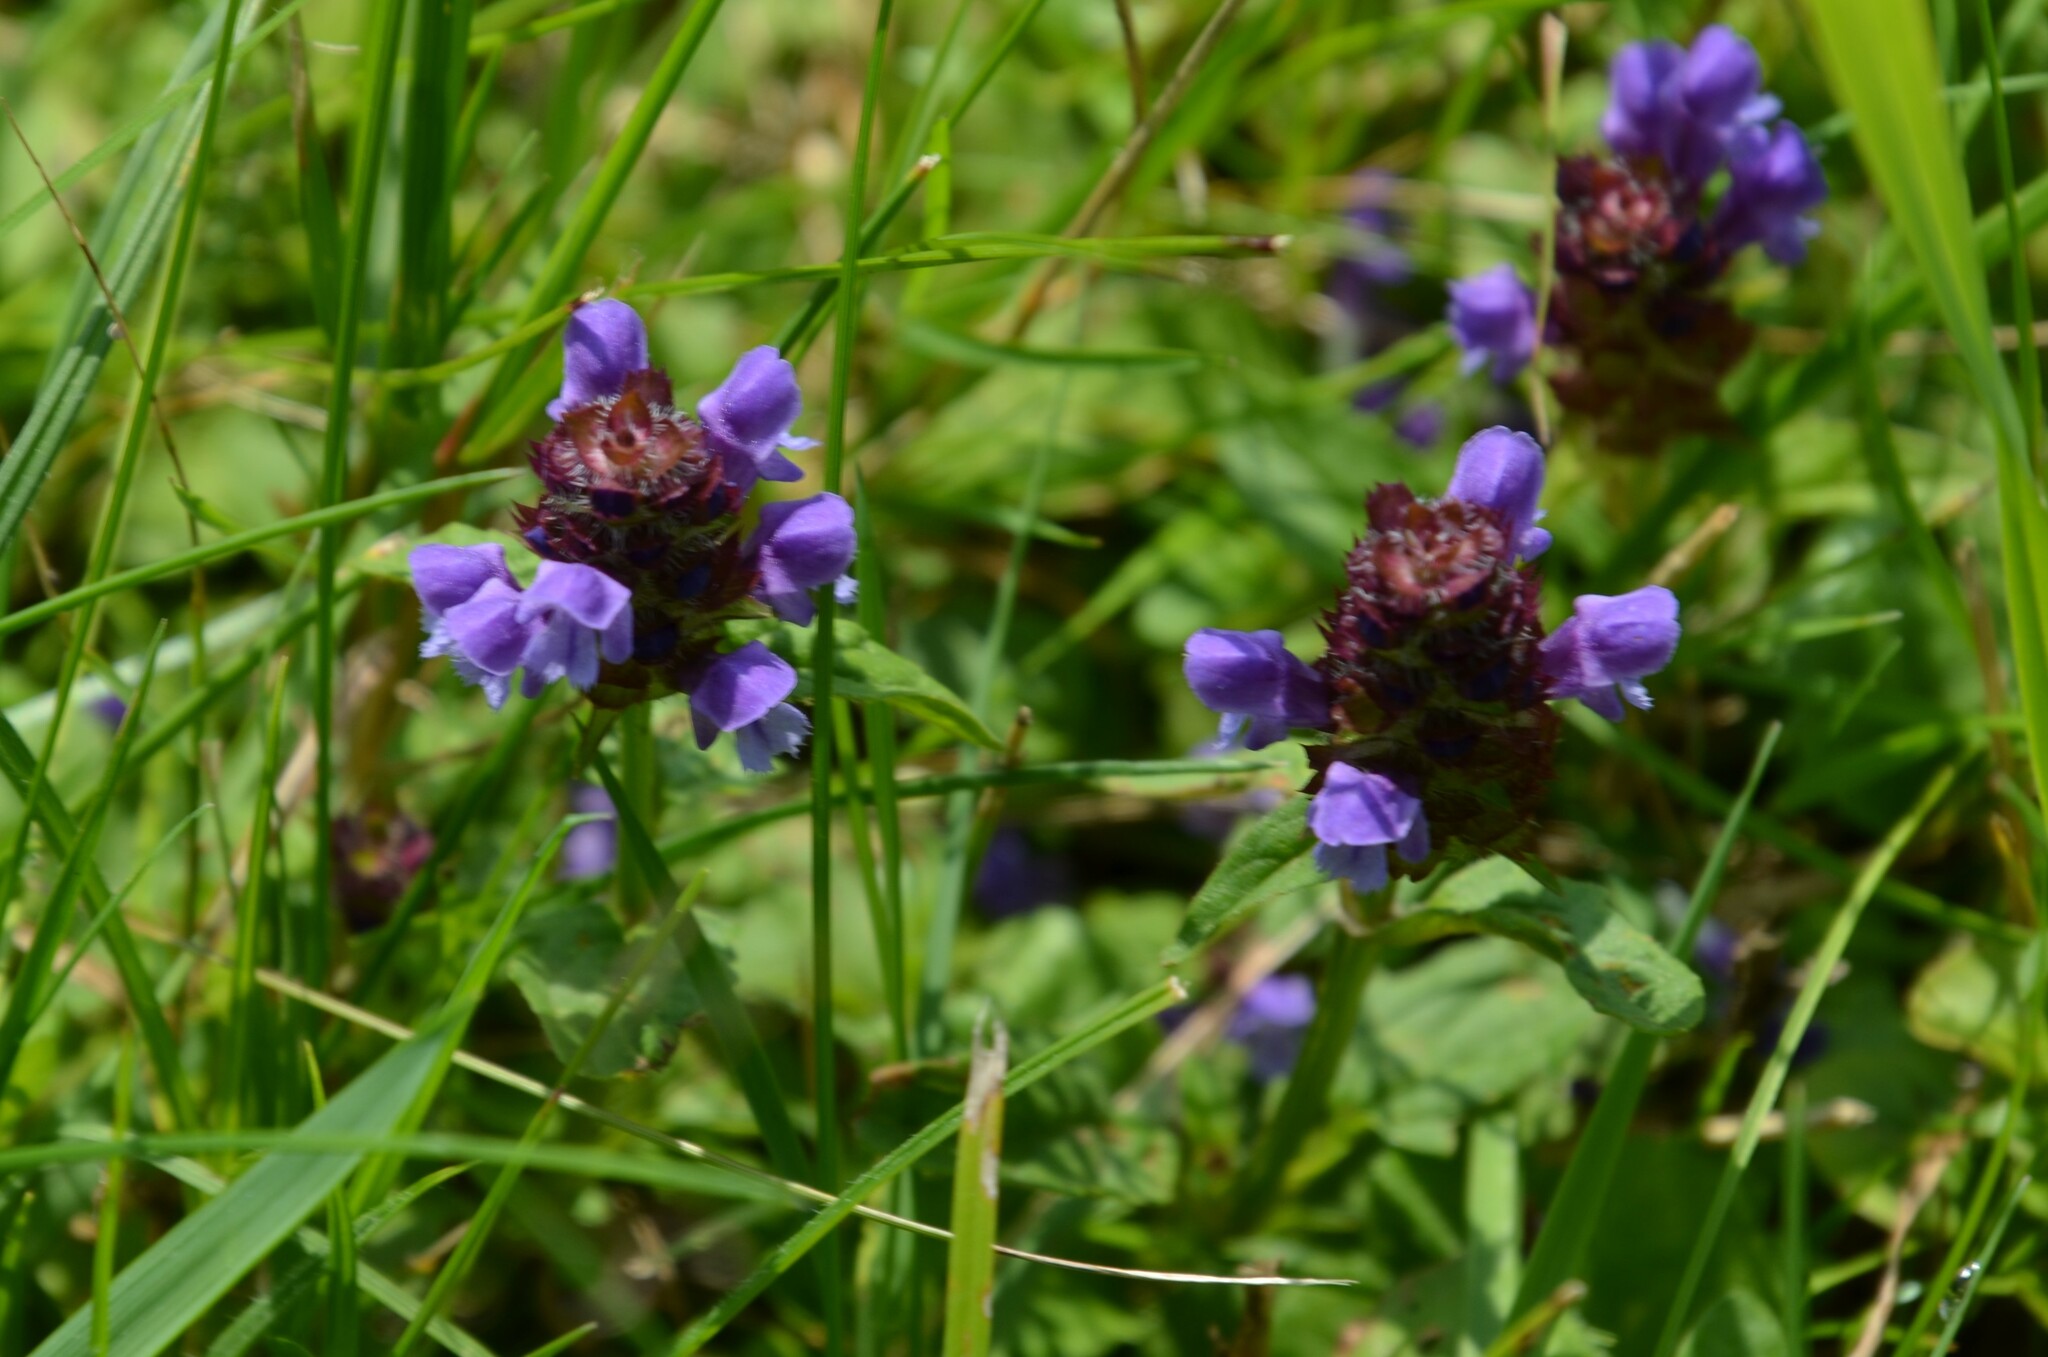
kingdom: Plantae
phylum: Tracheophyta
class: Magnoliopsida
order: Lamiales
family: Lamiaceae
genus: Prunella
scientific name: Prunella vulgaris
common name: Heal-all
